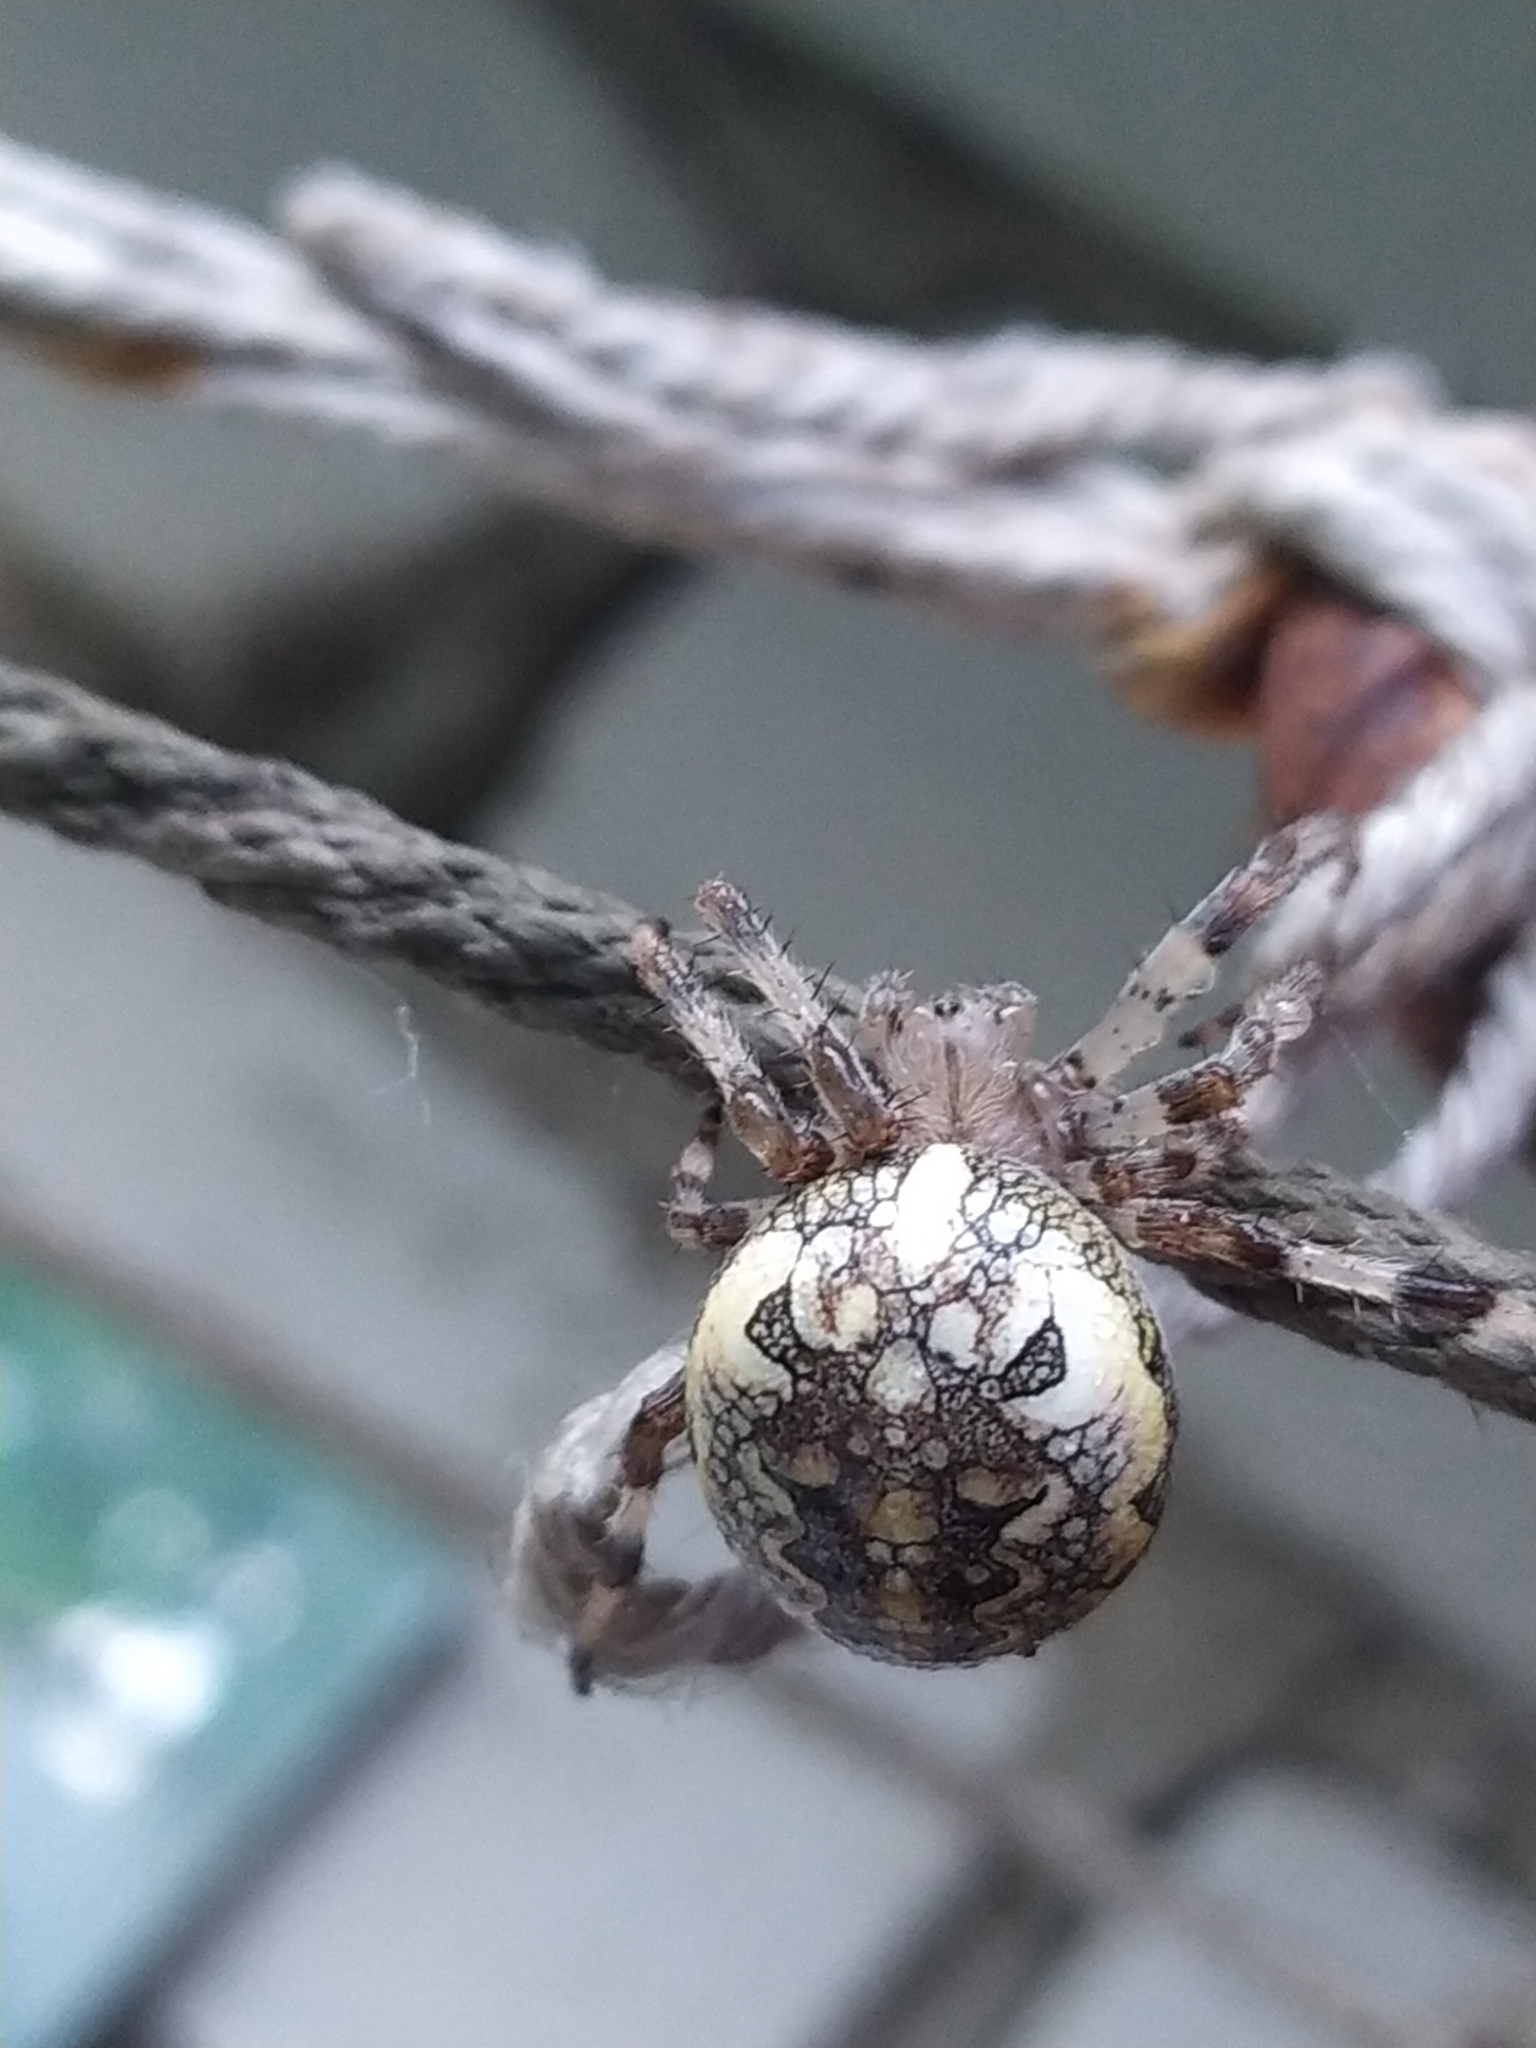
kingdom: Animalia
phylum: Arthropoda
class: Arachnida
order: Araneae
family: Araneidae
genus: Araneus
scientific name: Araneus marmoreus
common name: Marbled orbweaver
